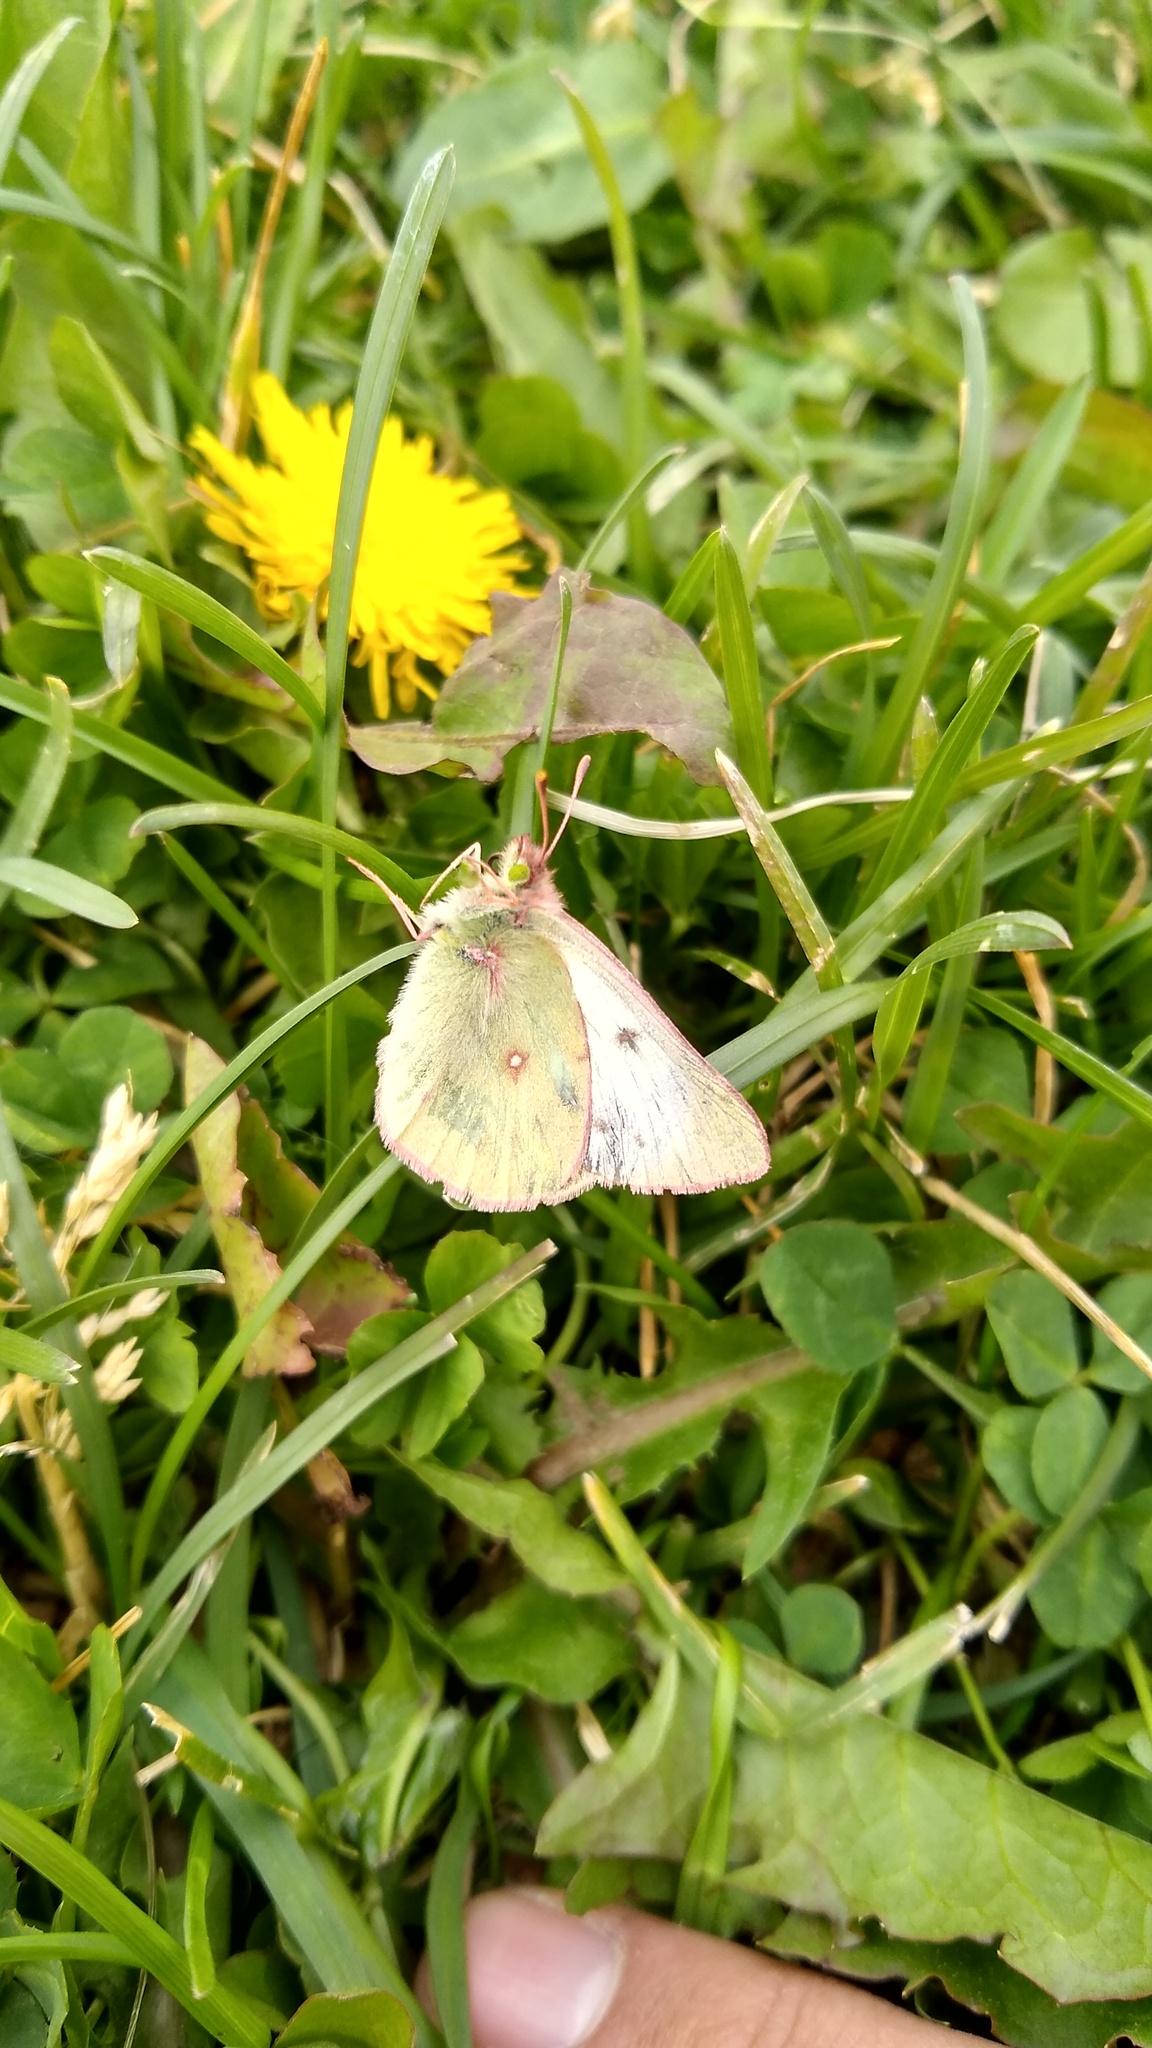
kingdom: Animalia
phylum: Arthropoda
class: Insecta
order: Lepidoptera
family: Pieridae
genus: Colias
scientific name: Colias vauthierii
